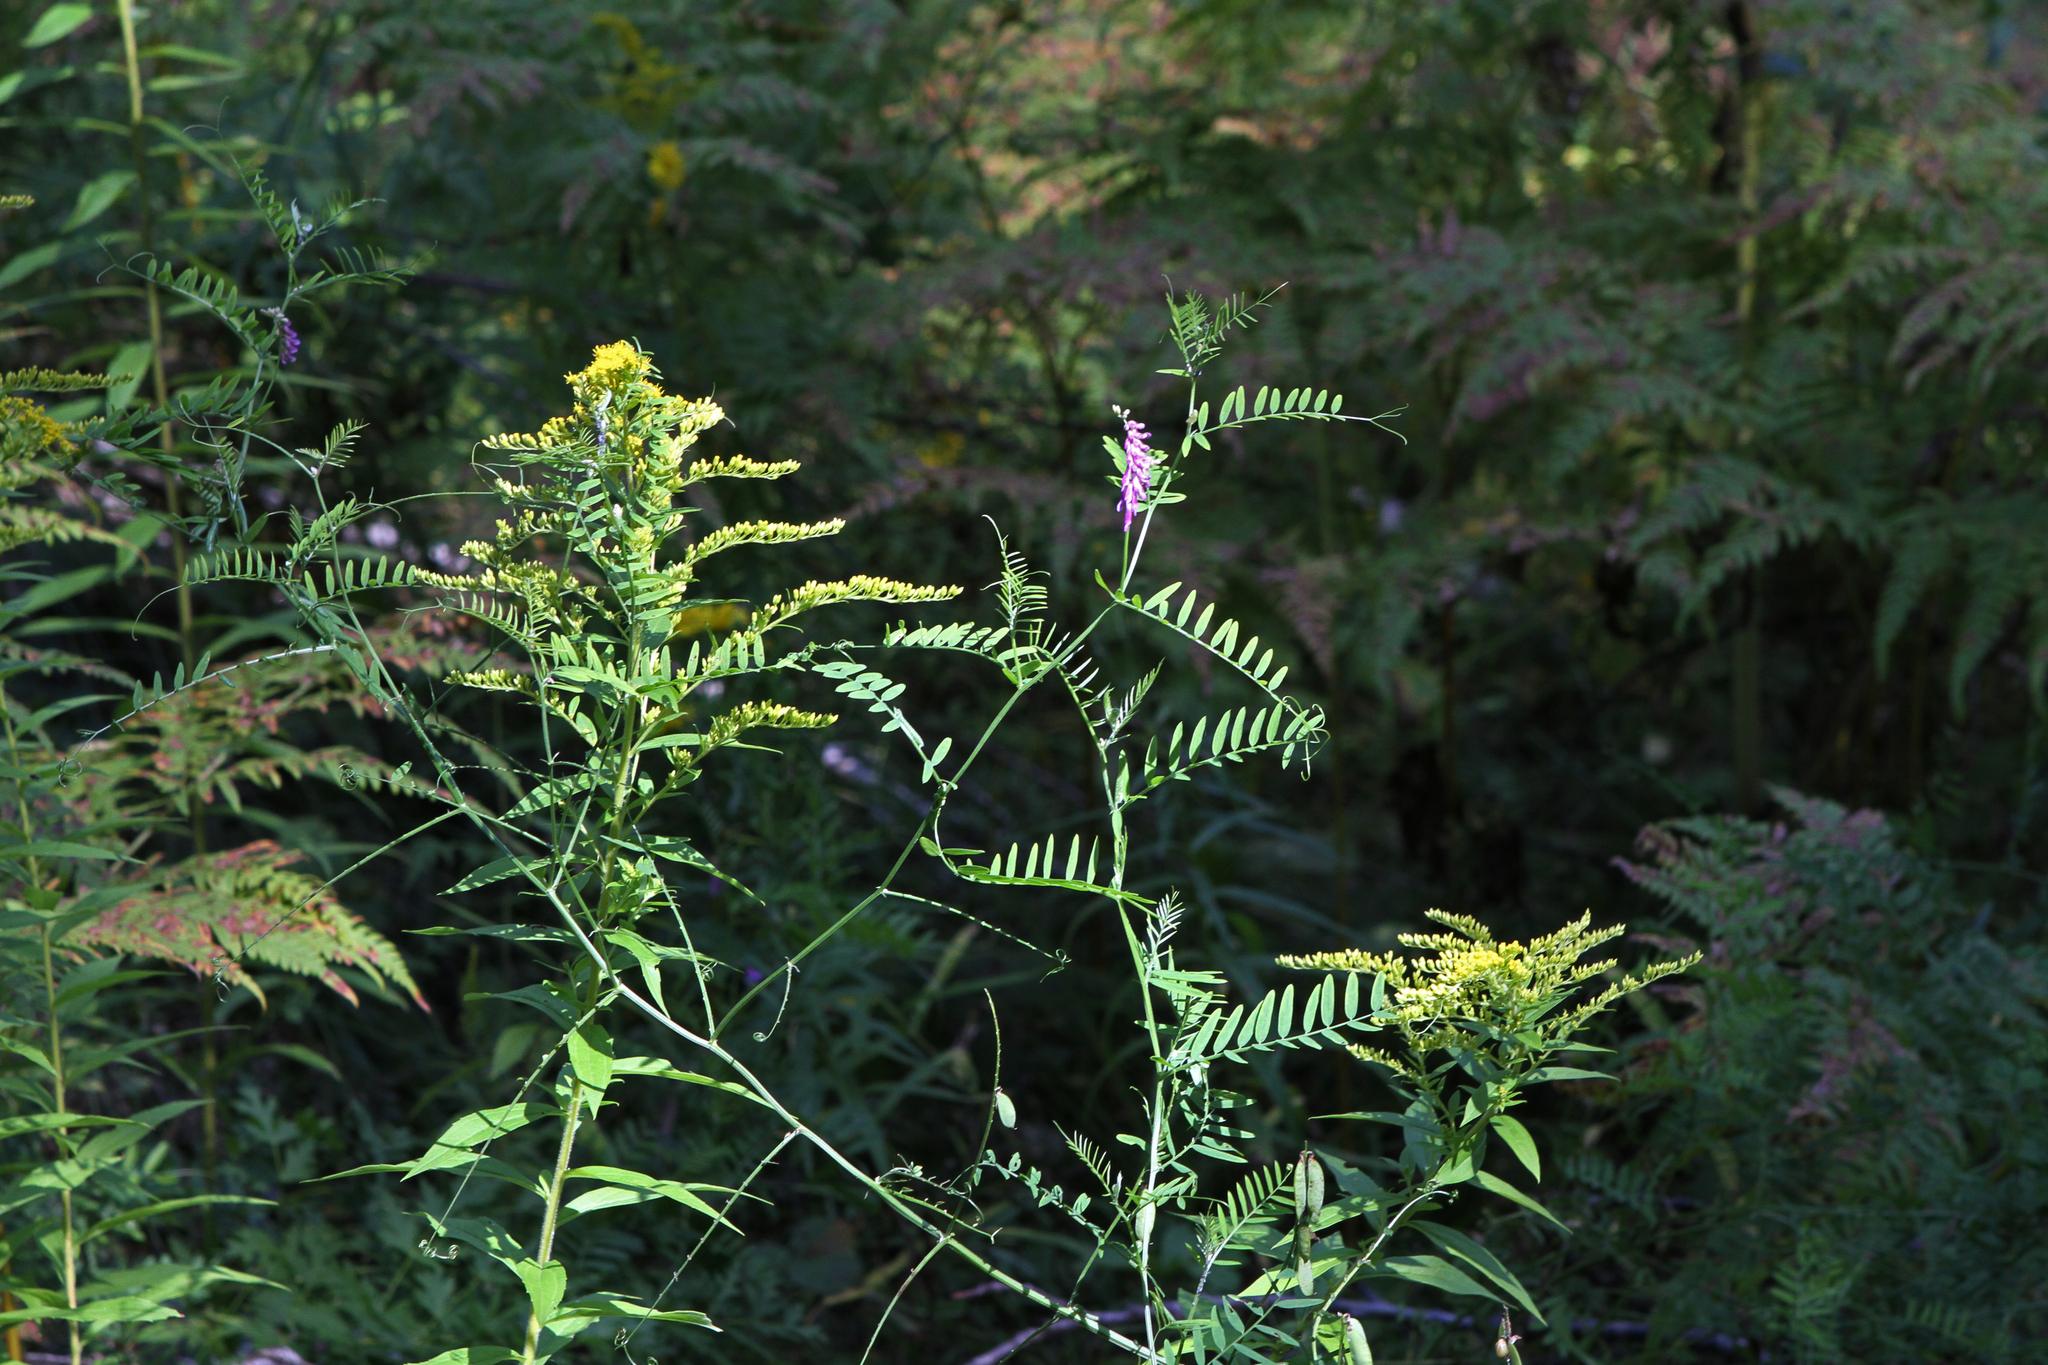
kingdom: Plantae
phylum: Tracheophyta
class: Magnoliopsida
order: Fabales
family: Fabaceae
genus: Vicia
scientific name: Vicia cracca
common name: Bird vetch
